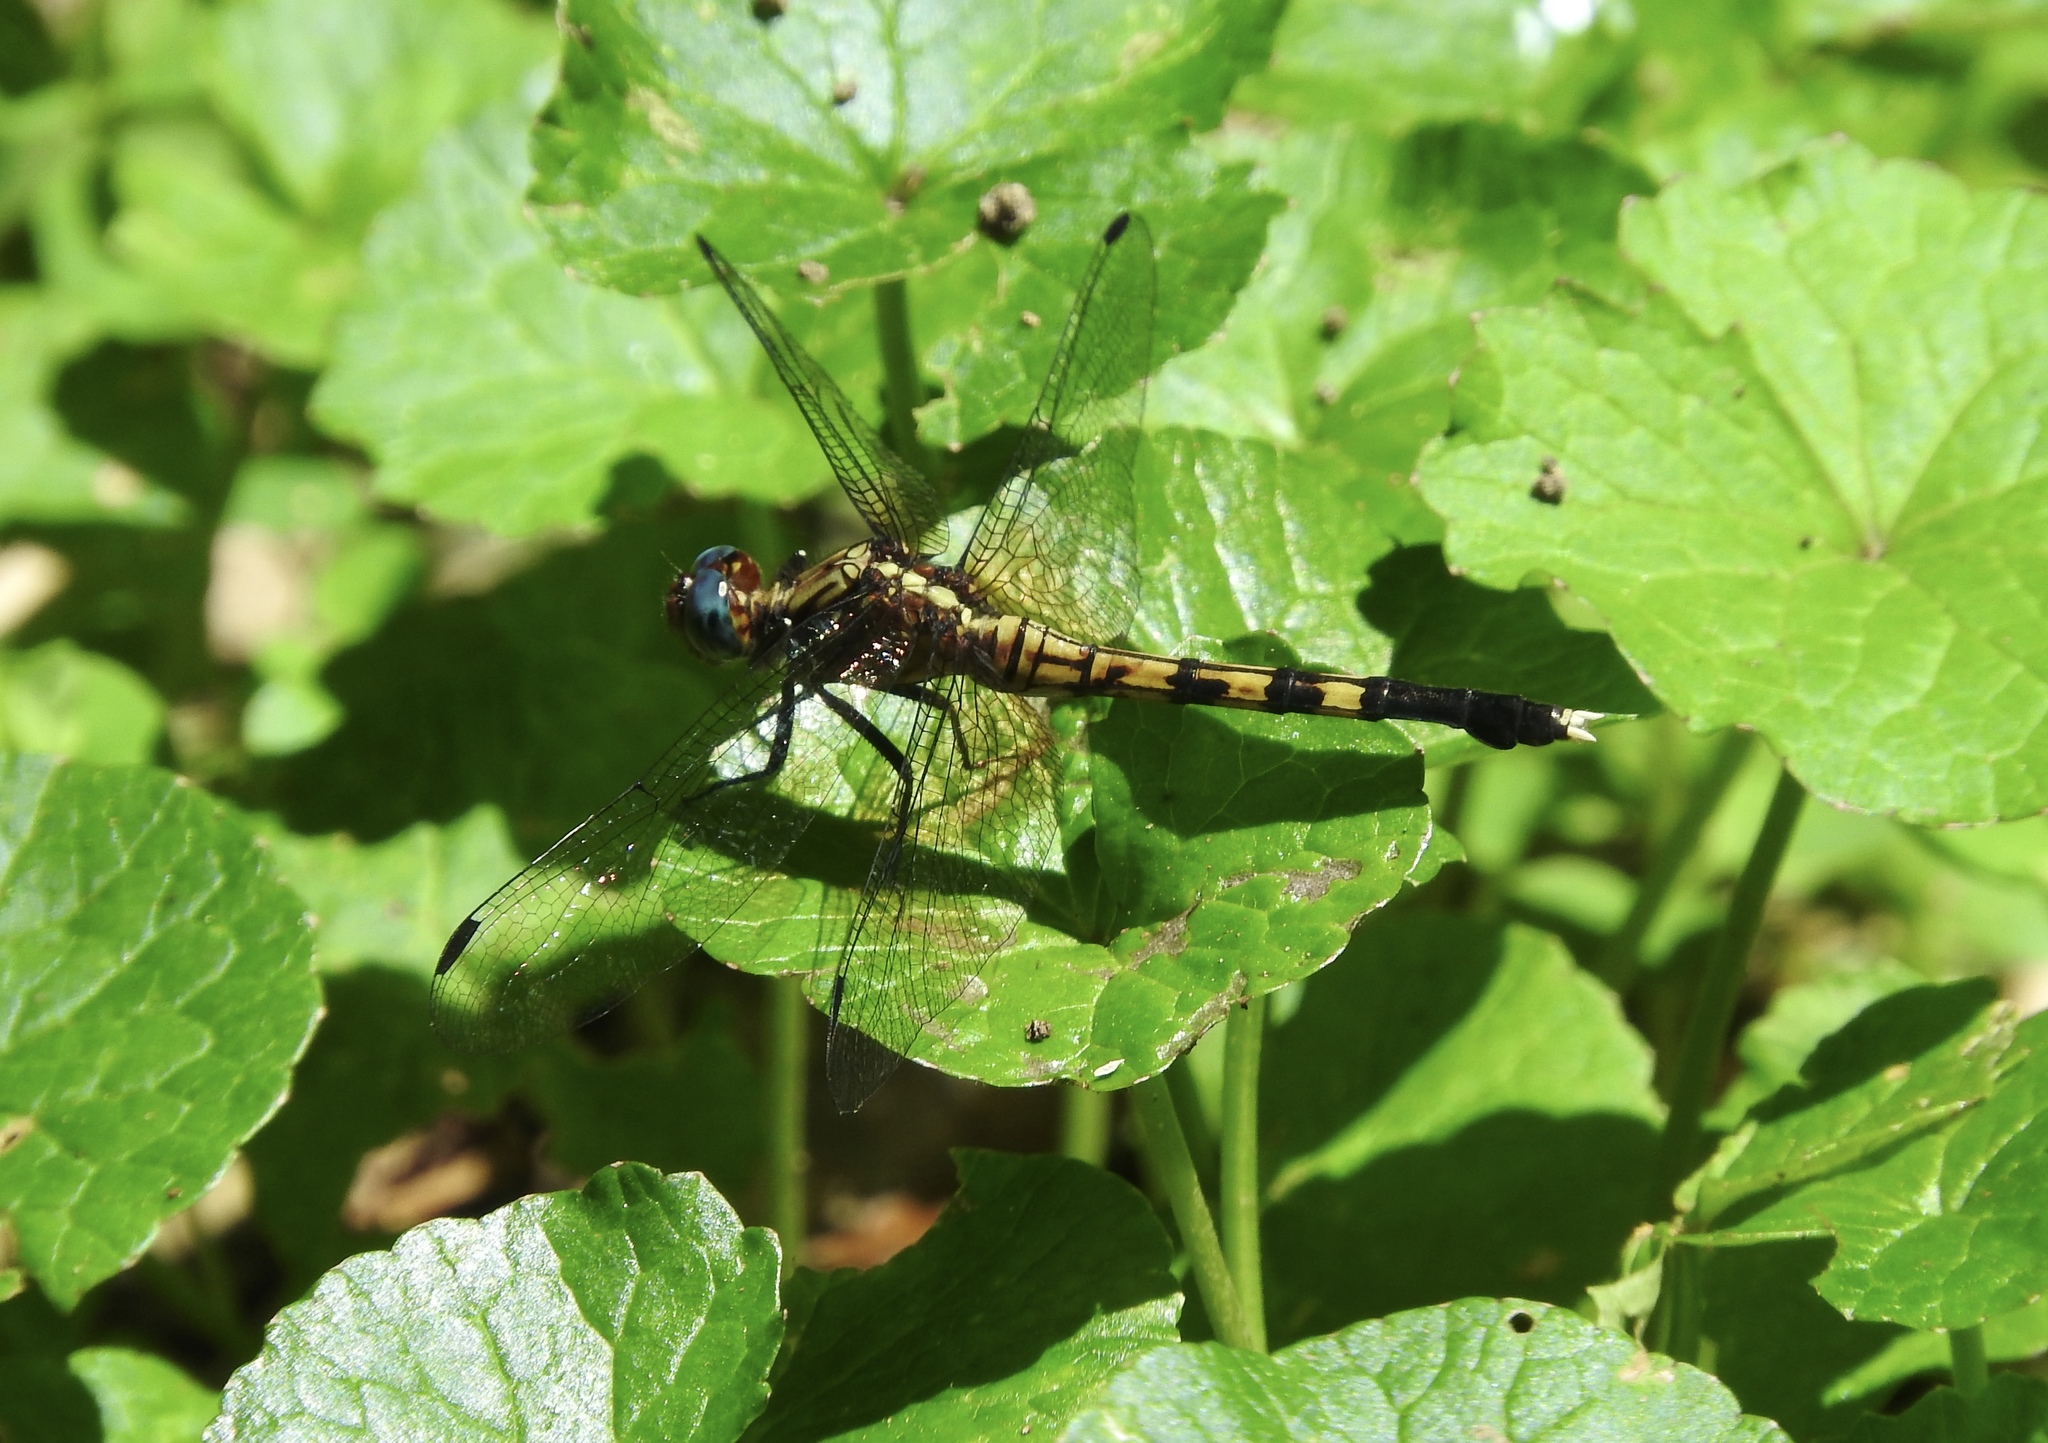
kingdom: Animalia
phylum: Arthropoda
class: Insecta
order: Odonata
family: Libellulidae
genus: Orthetrum
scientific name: Orthetrum julia
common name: Julia skimmer
